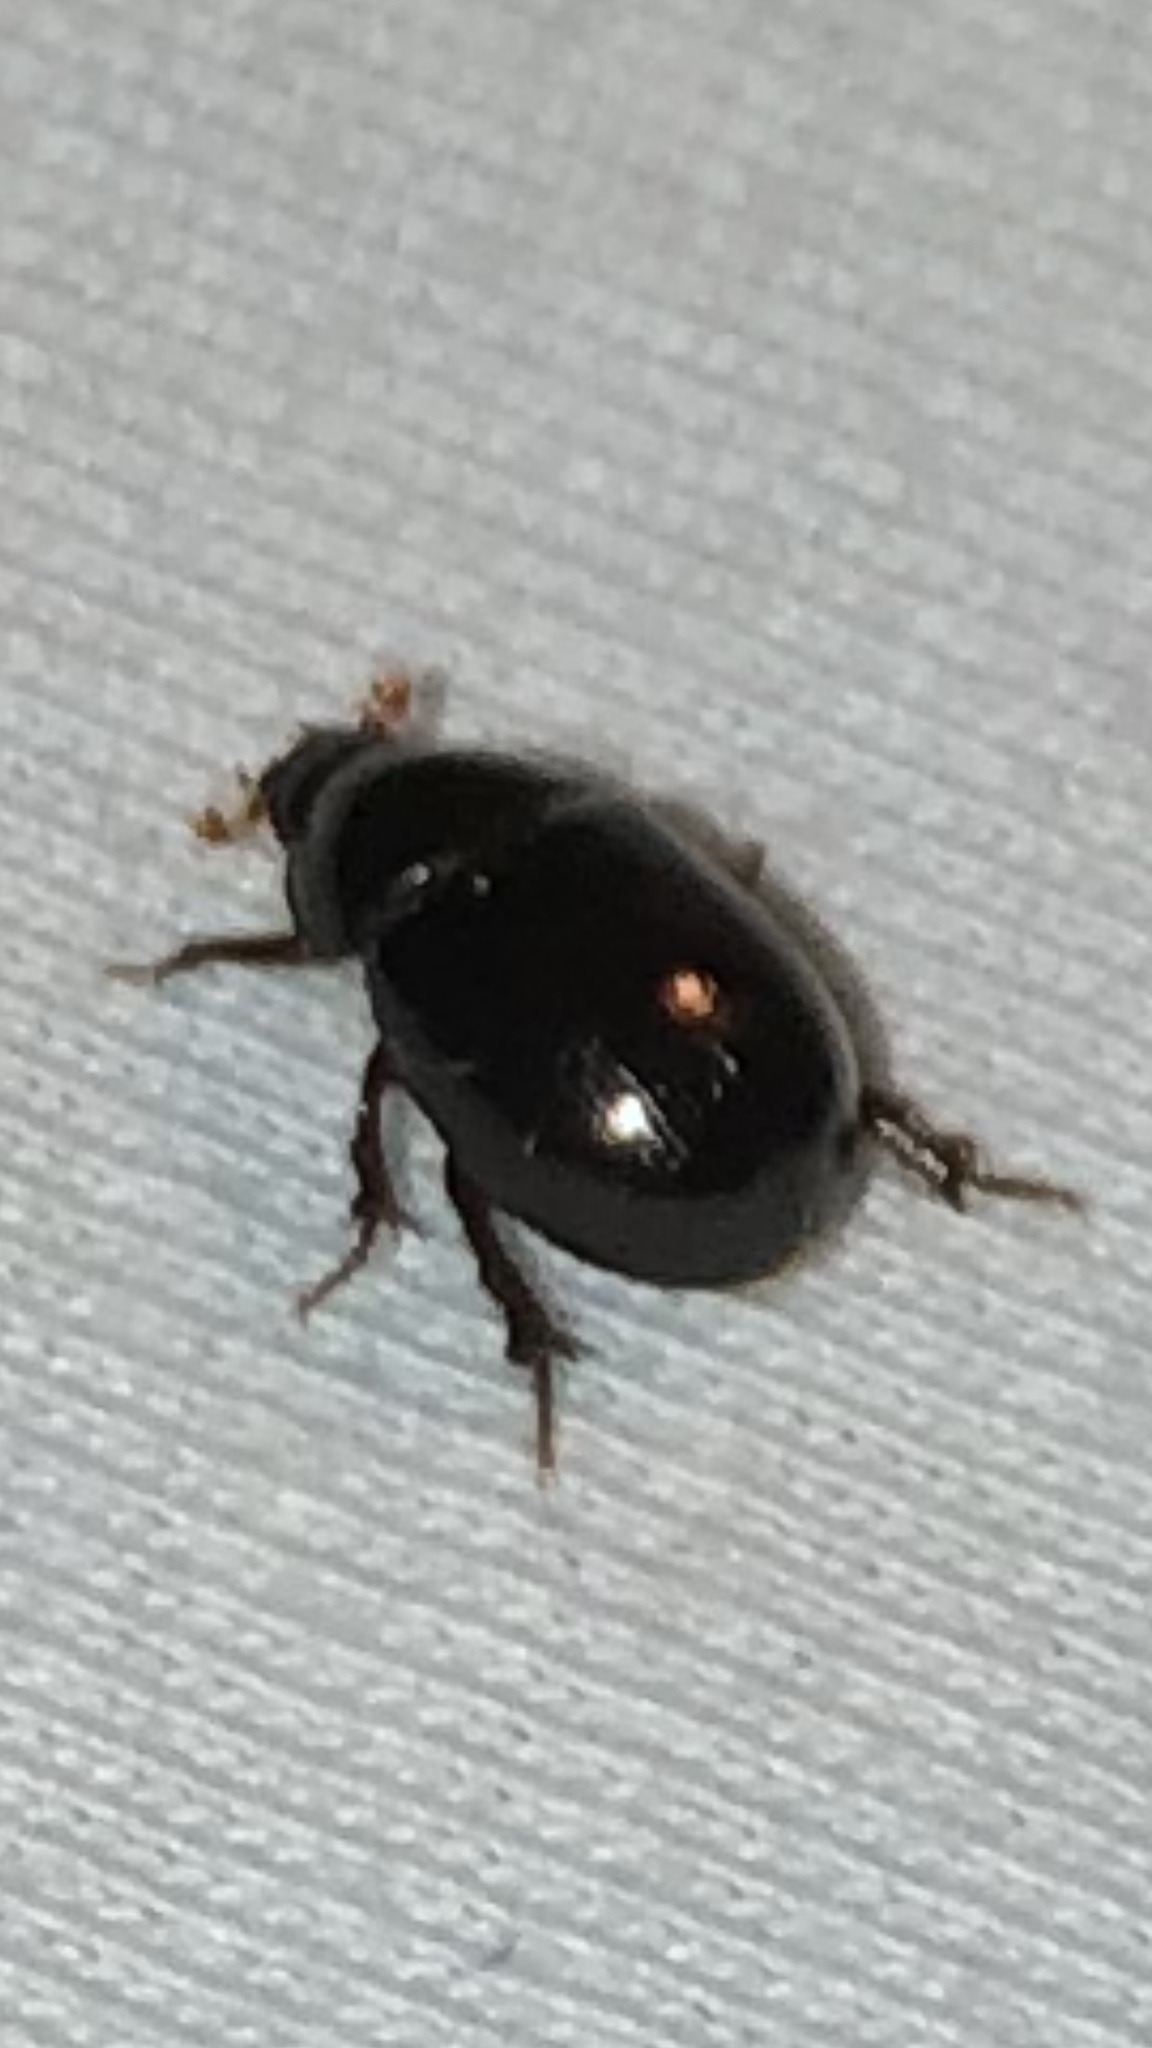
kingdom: Animalia
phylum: Arthropoda
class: Insecta
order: Coleoptera
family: Hybosoridae
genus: Hybosorus
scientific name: Hybosorus illigeri
